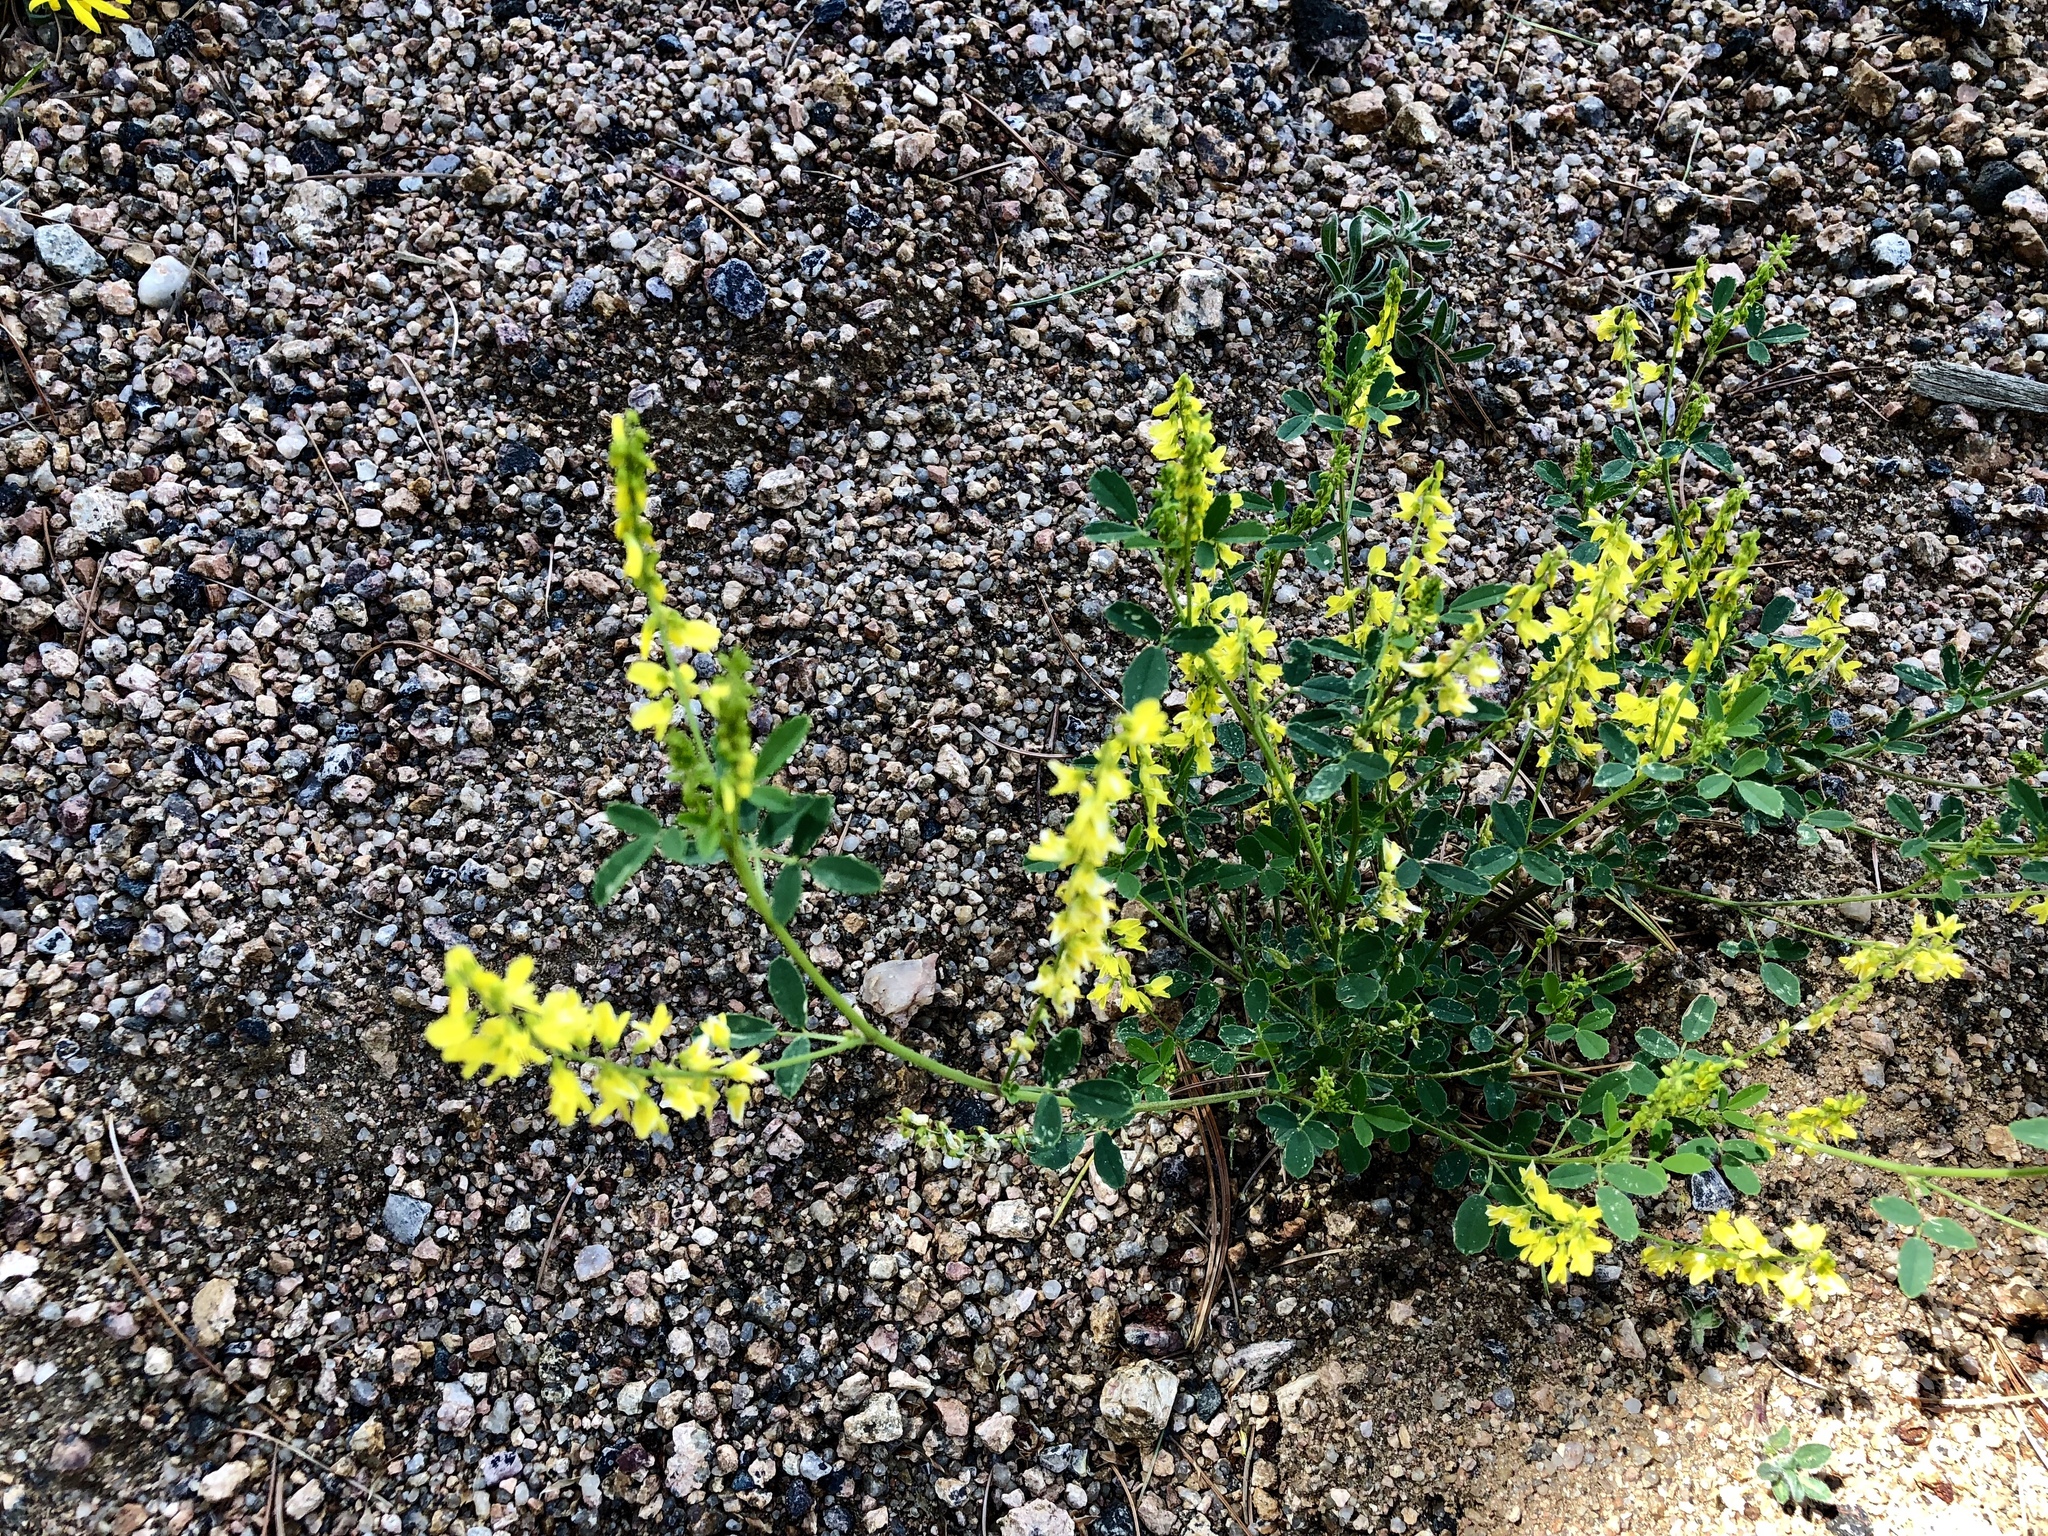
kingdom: Plantae
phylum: Tracheophyta
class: Magnoliopsida
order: Fabales
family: Fabaceae
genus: Melilotus
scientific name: Melilotus officinalis
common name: Sweetclover
